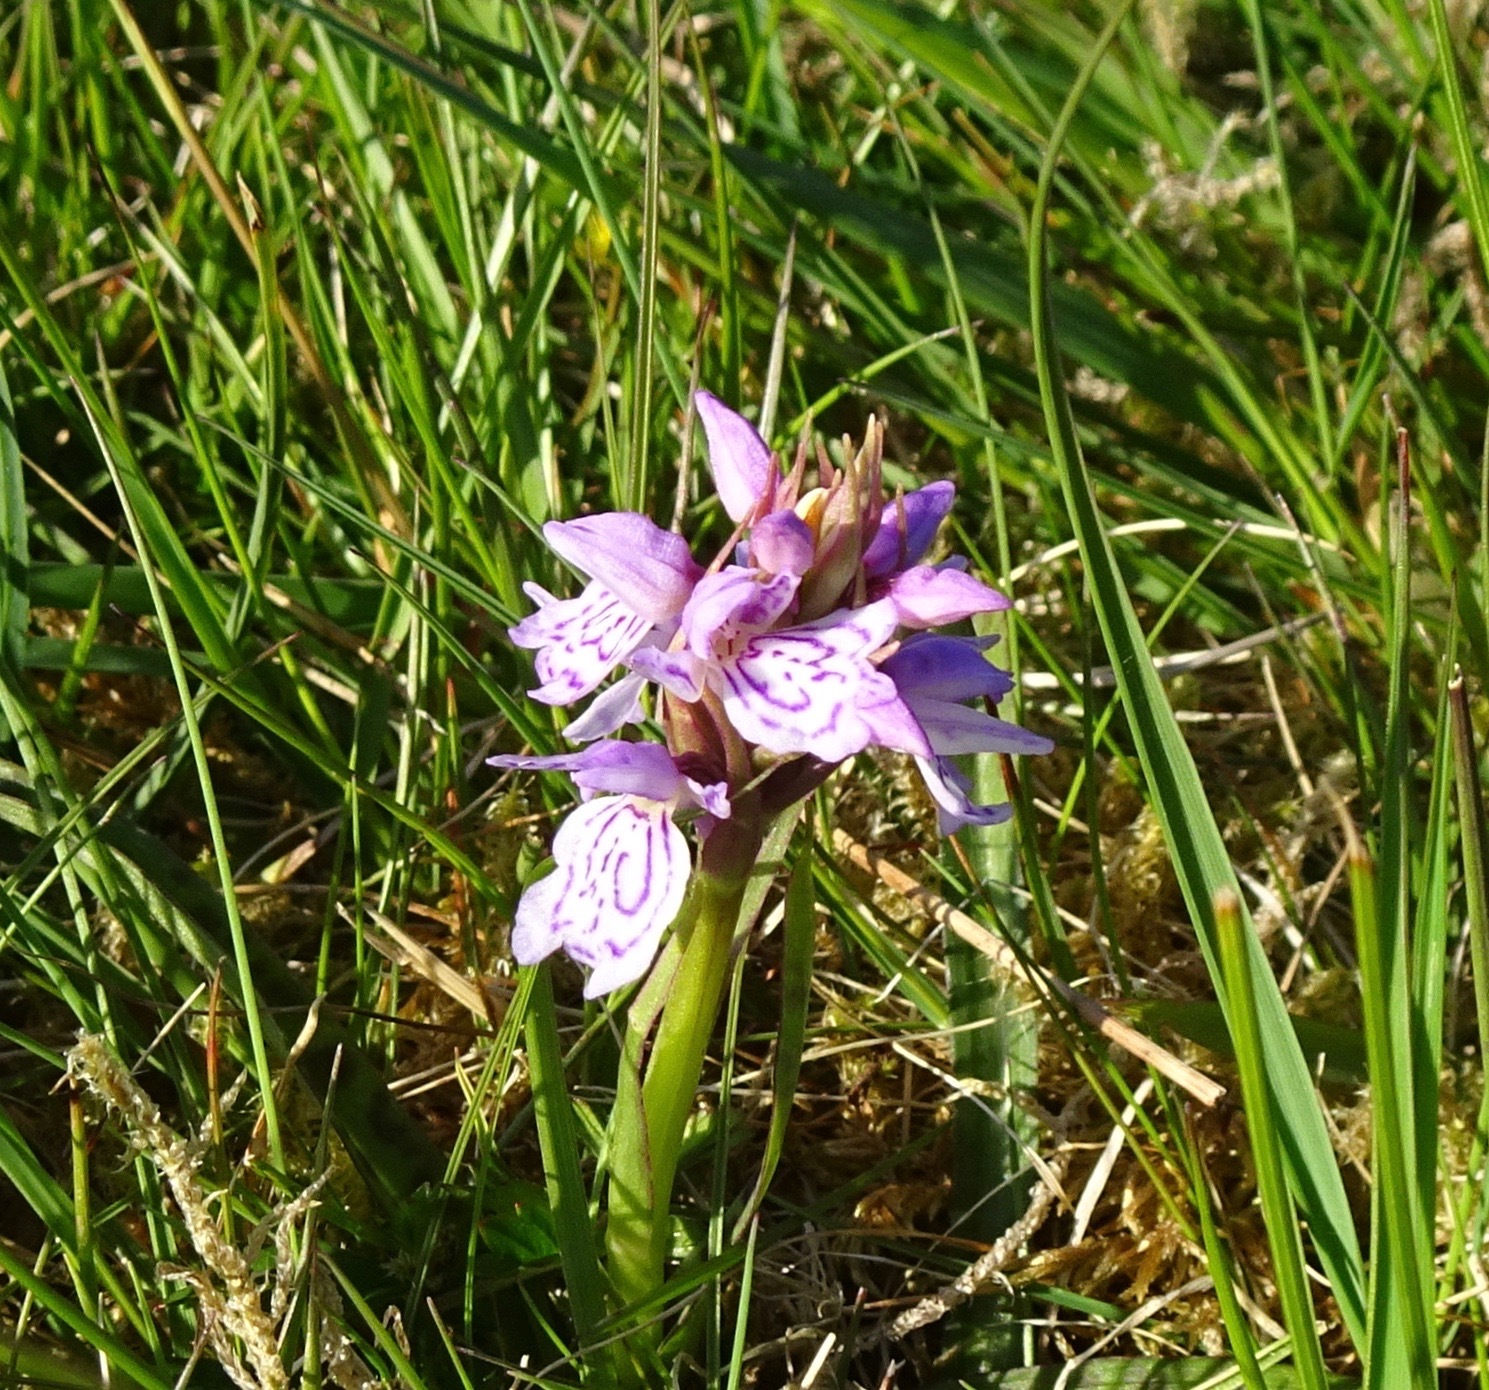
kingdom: Plantae
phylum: Tracheophyta
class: Liliopsida
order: Asparagales
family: Orchidaceae
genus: Dactylorhiza
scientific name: Dactylorhiza maculata
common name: Heath spotted-orchid
